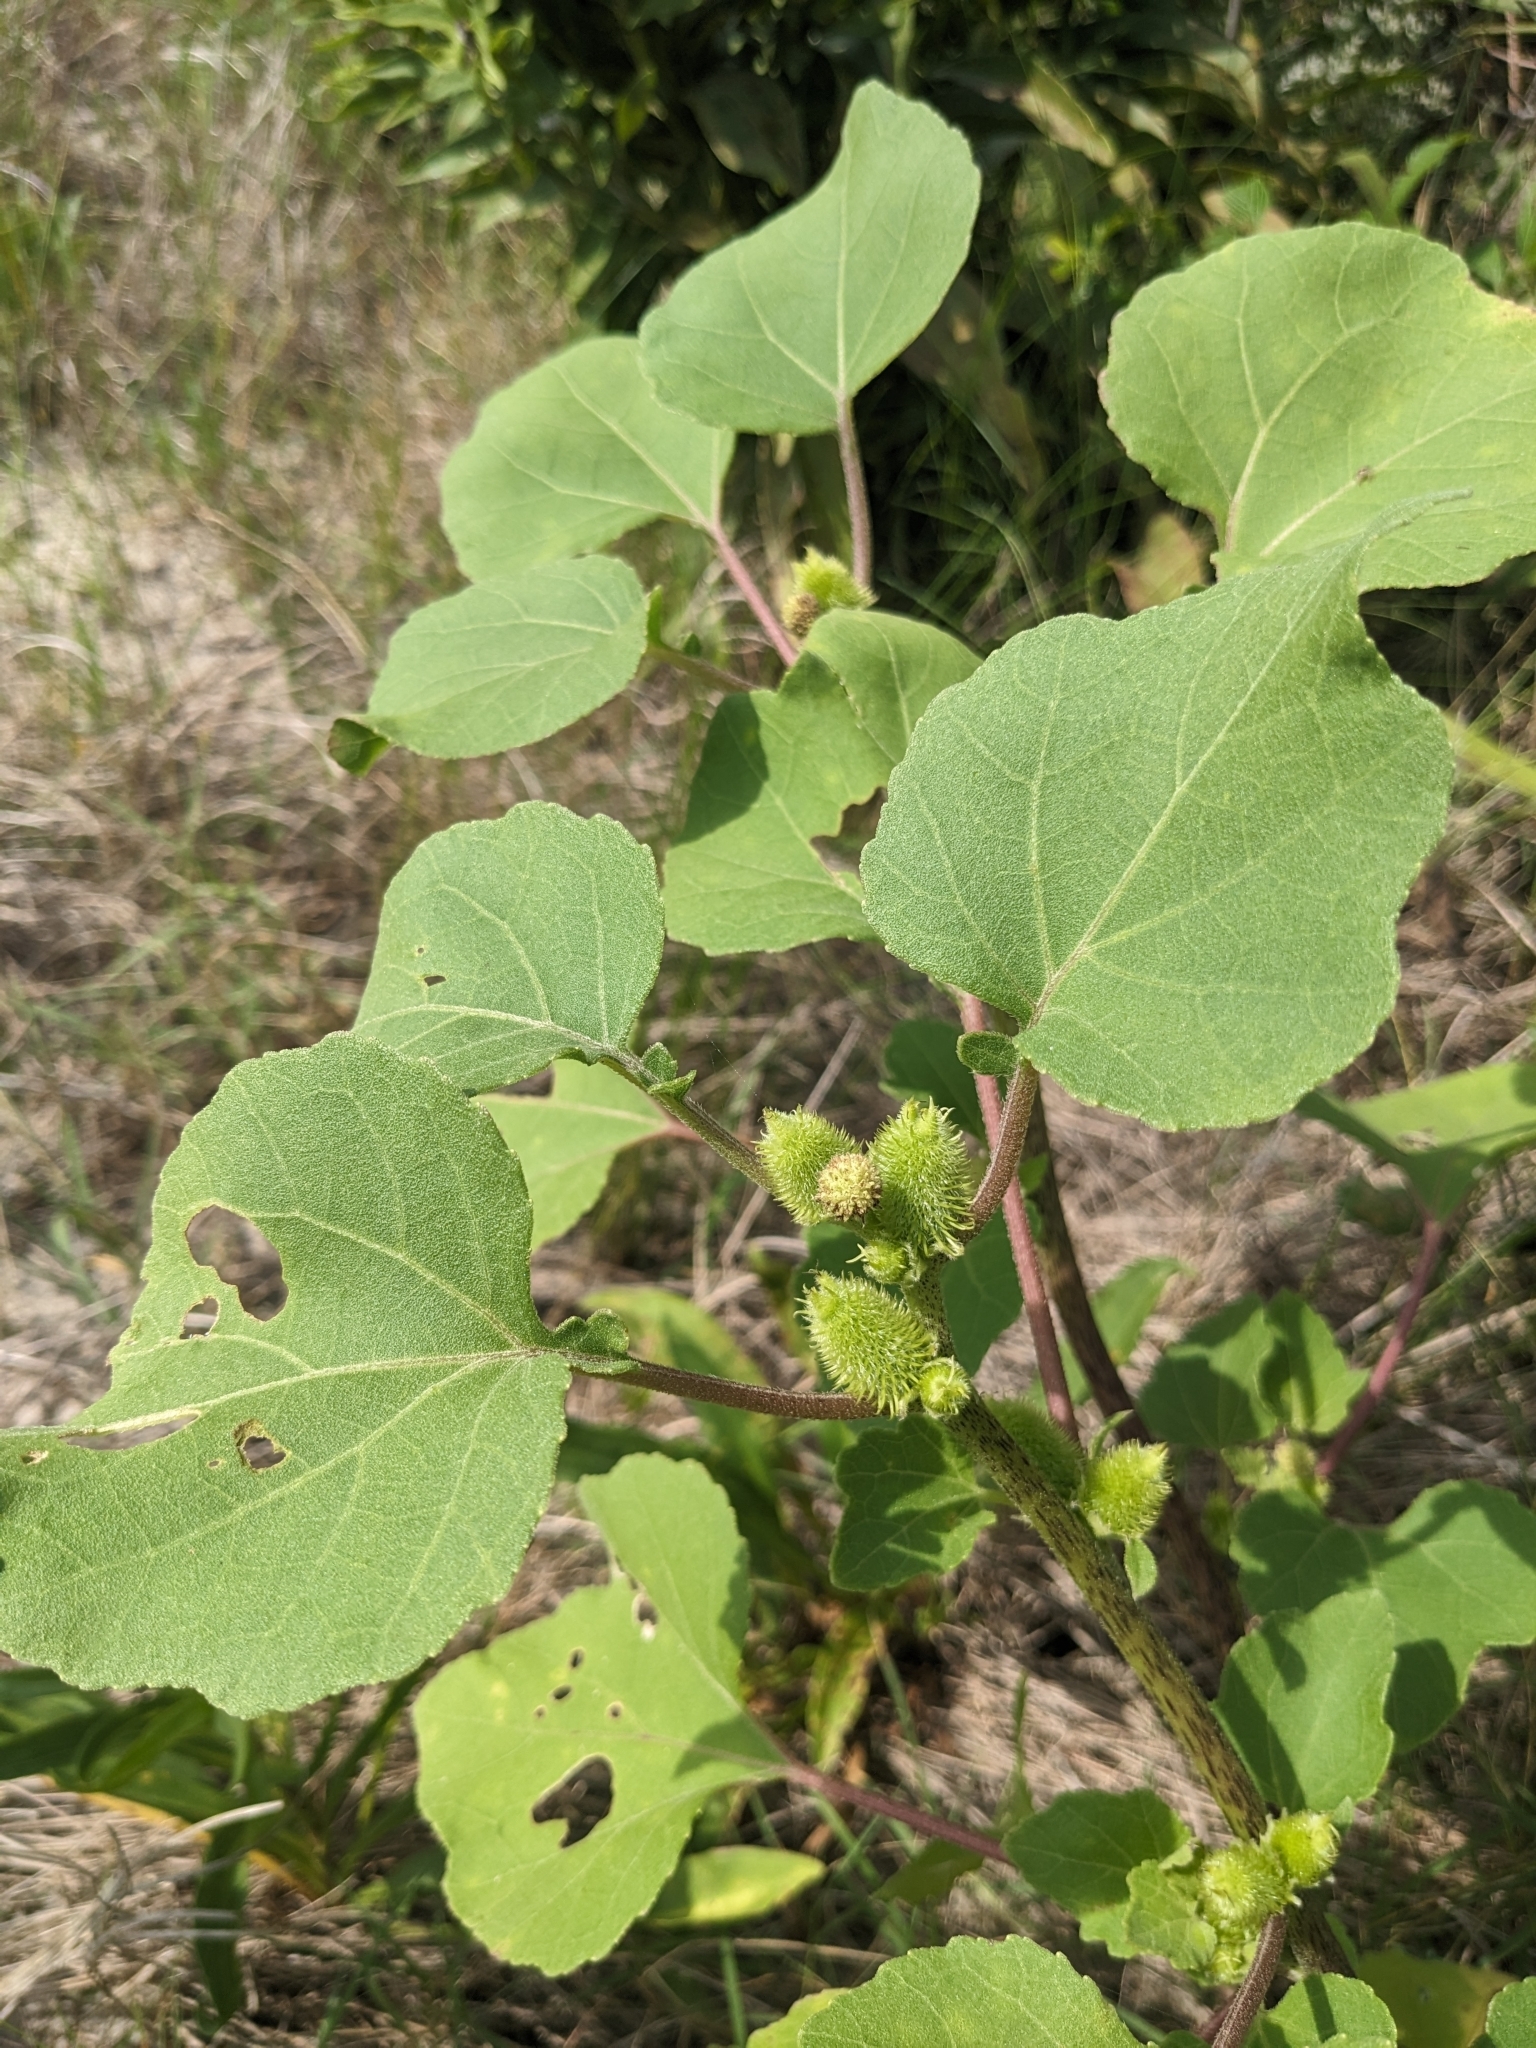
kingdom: Plantae
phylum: Tracheophyta
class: Magnoliopsida
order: Asterales
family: Asteraceae
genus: Xanthium
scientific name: Xanthium strumarium
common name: Rough cocklebur
